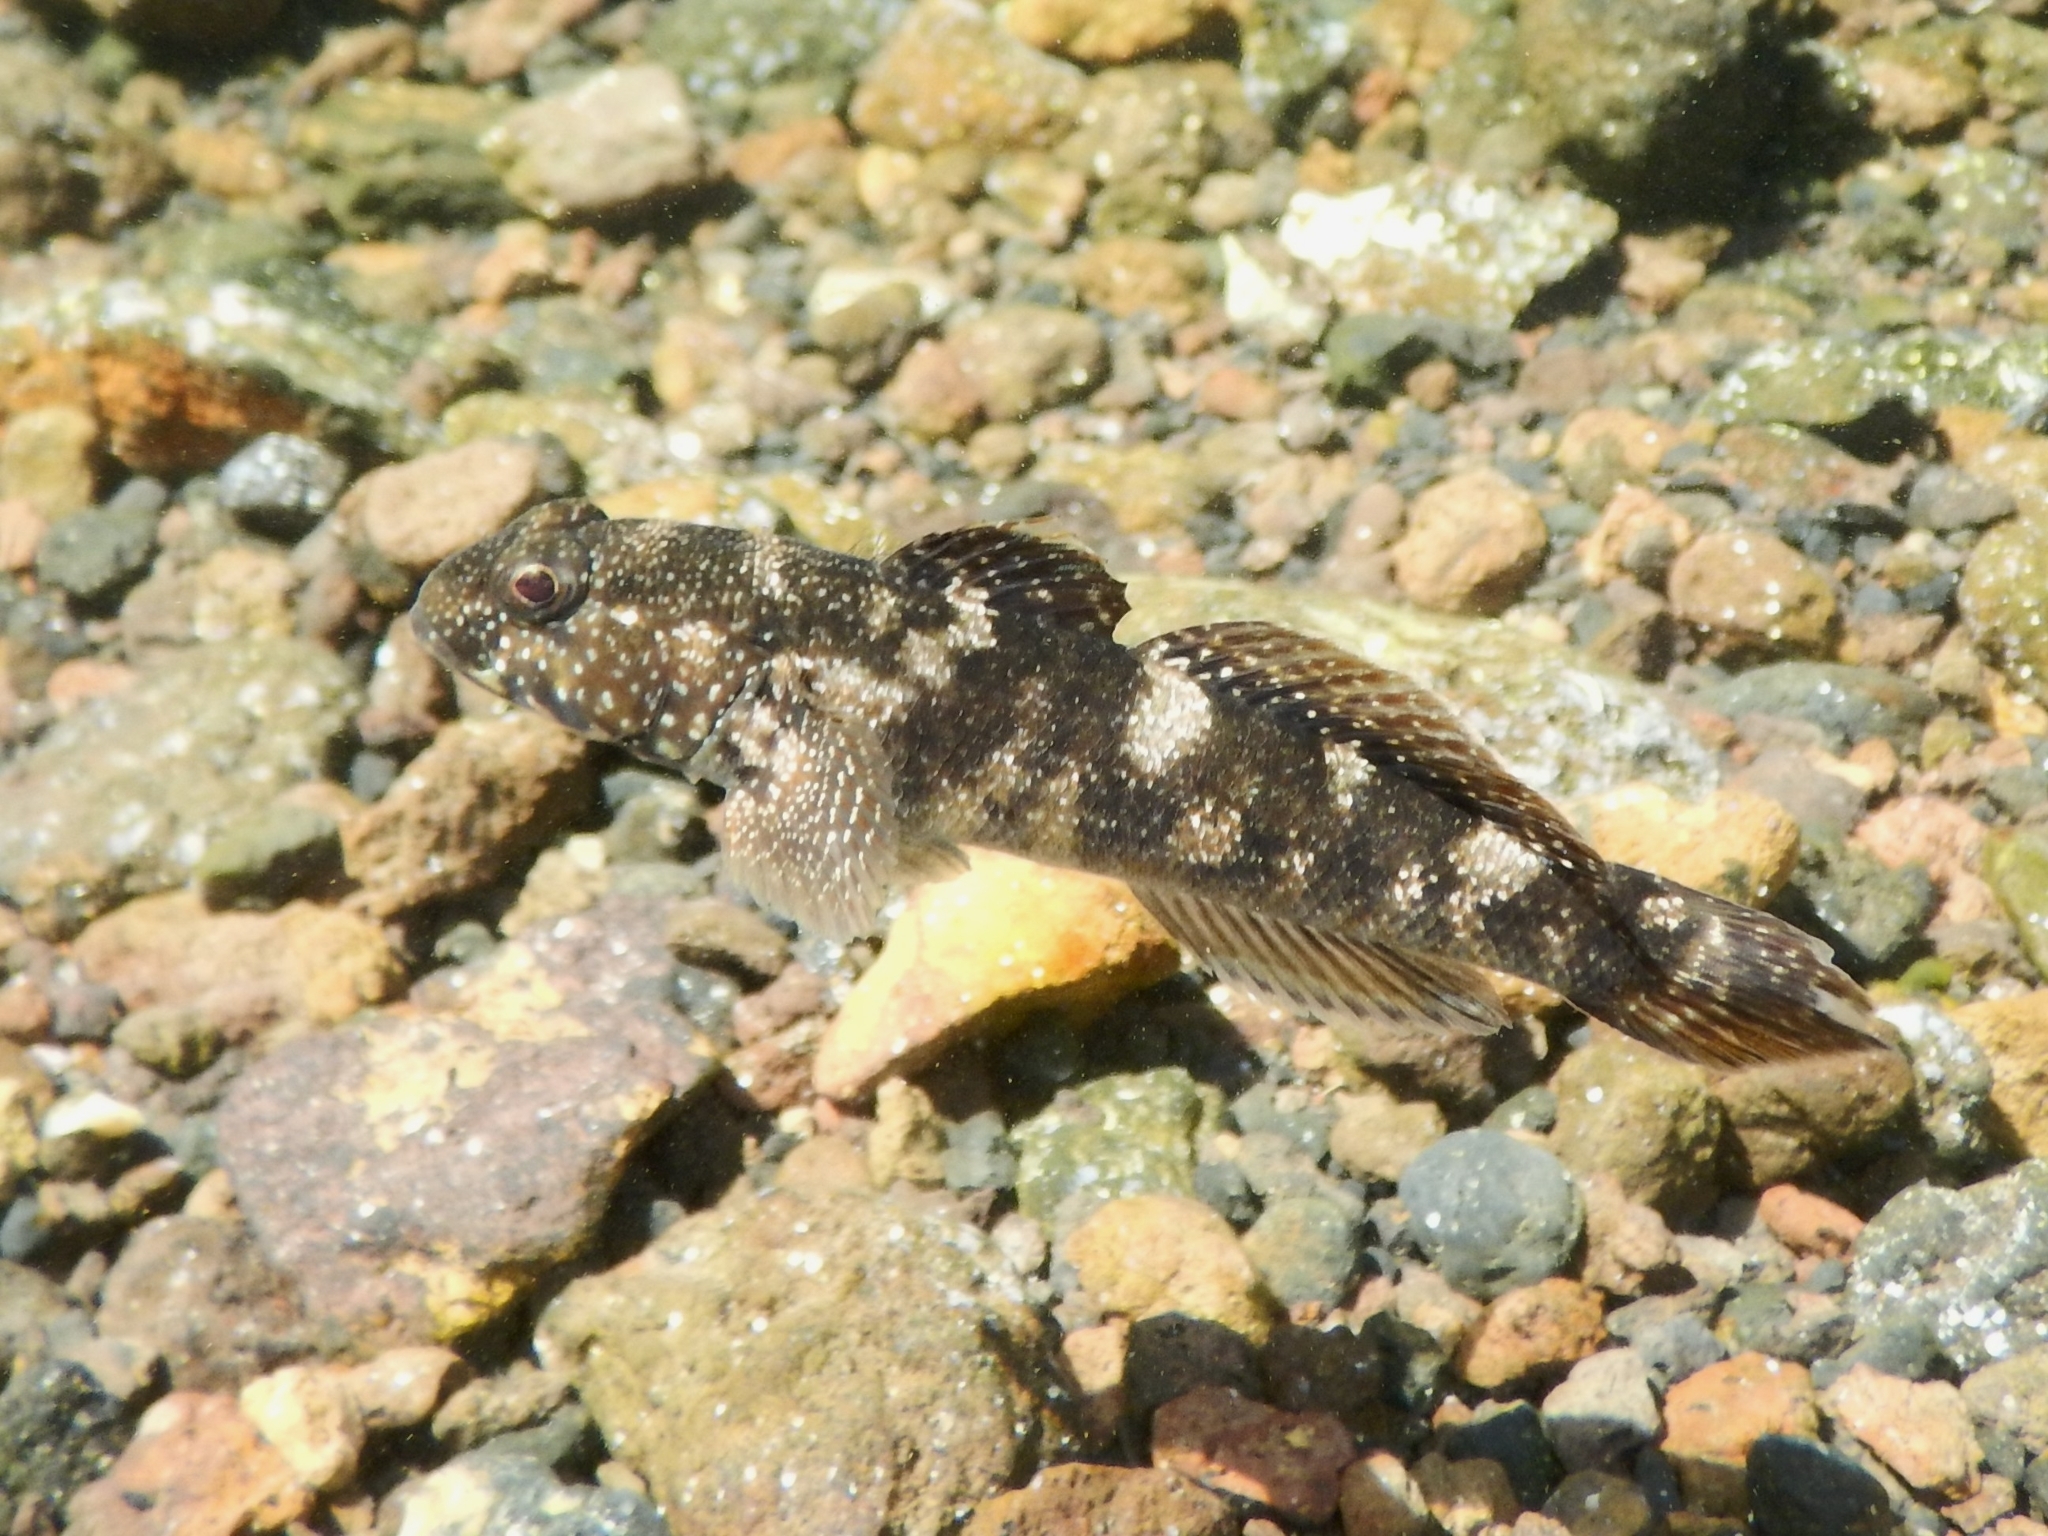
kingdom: Animalia
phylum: Chordata
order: Perciformes
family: Gobiidae
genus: Mauligobius
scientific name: Mauligobius maderensis
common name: Rock goby
